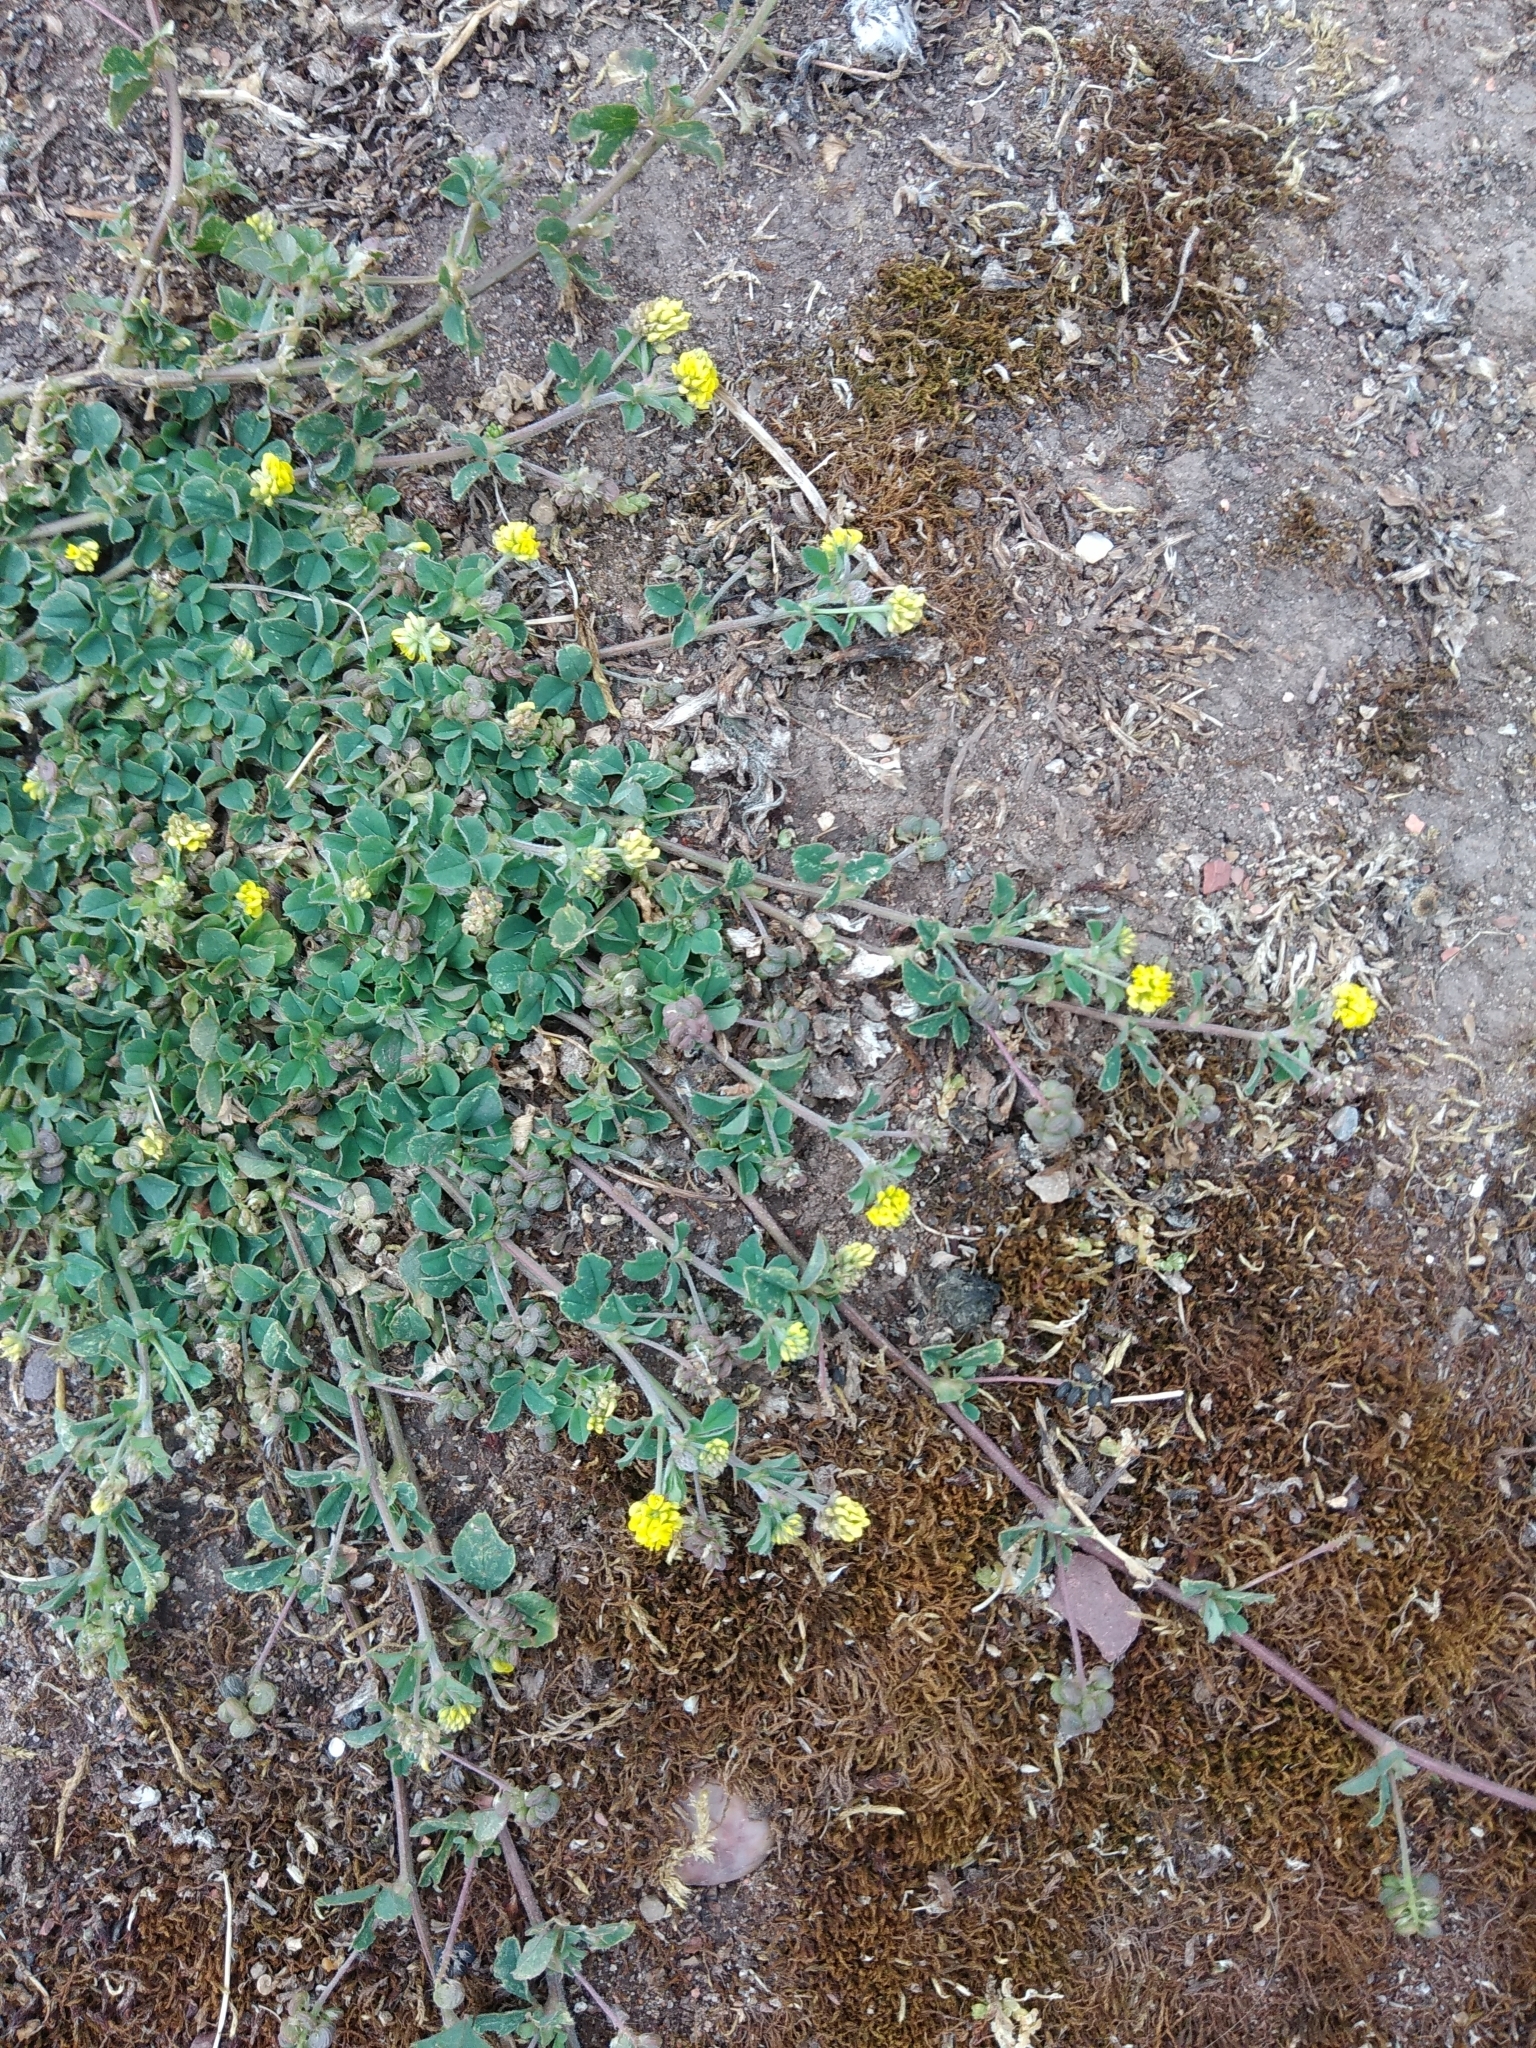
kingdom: Plantae
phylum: Tracheophyta
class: Magnoliopsida
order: Fabales
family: Fabaceae
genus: Medicago
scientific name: Medicago lupulina
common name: Black medick
